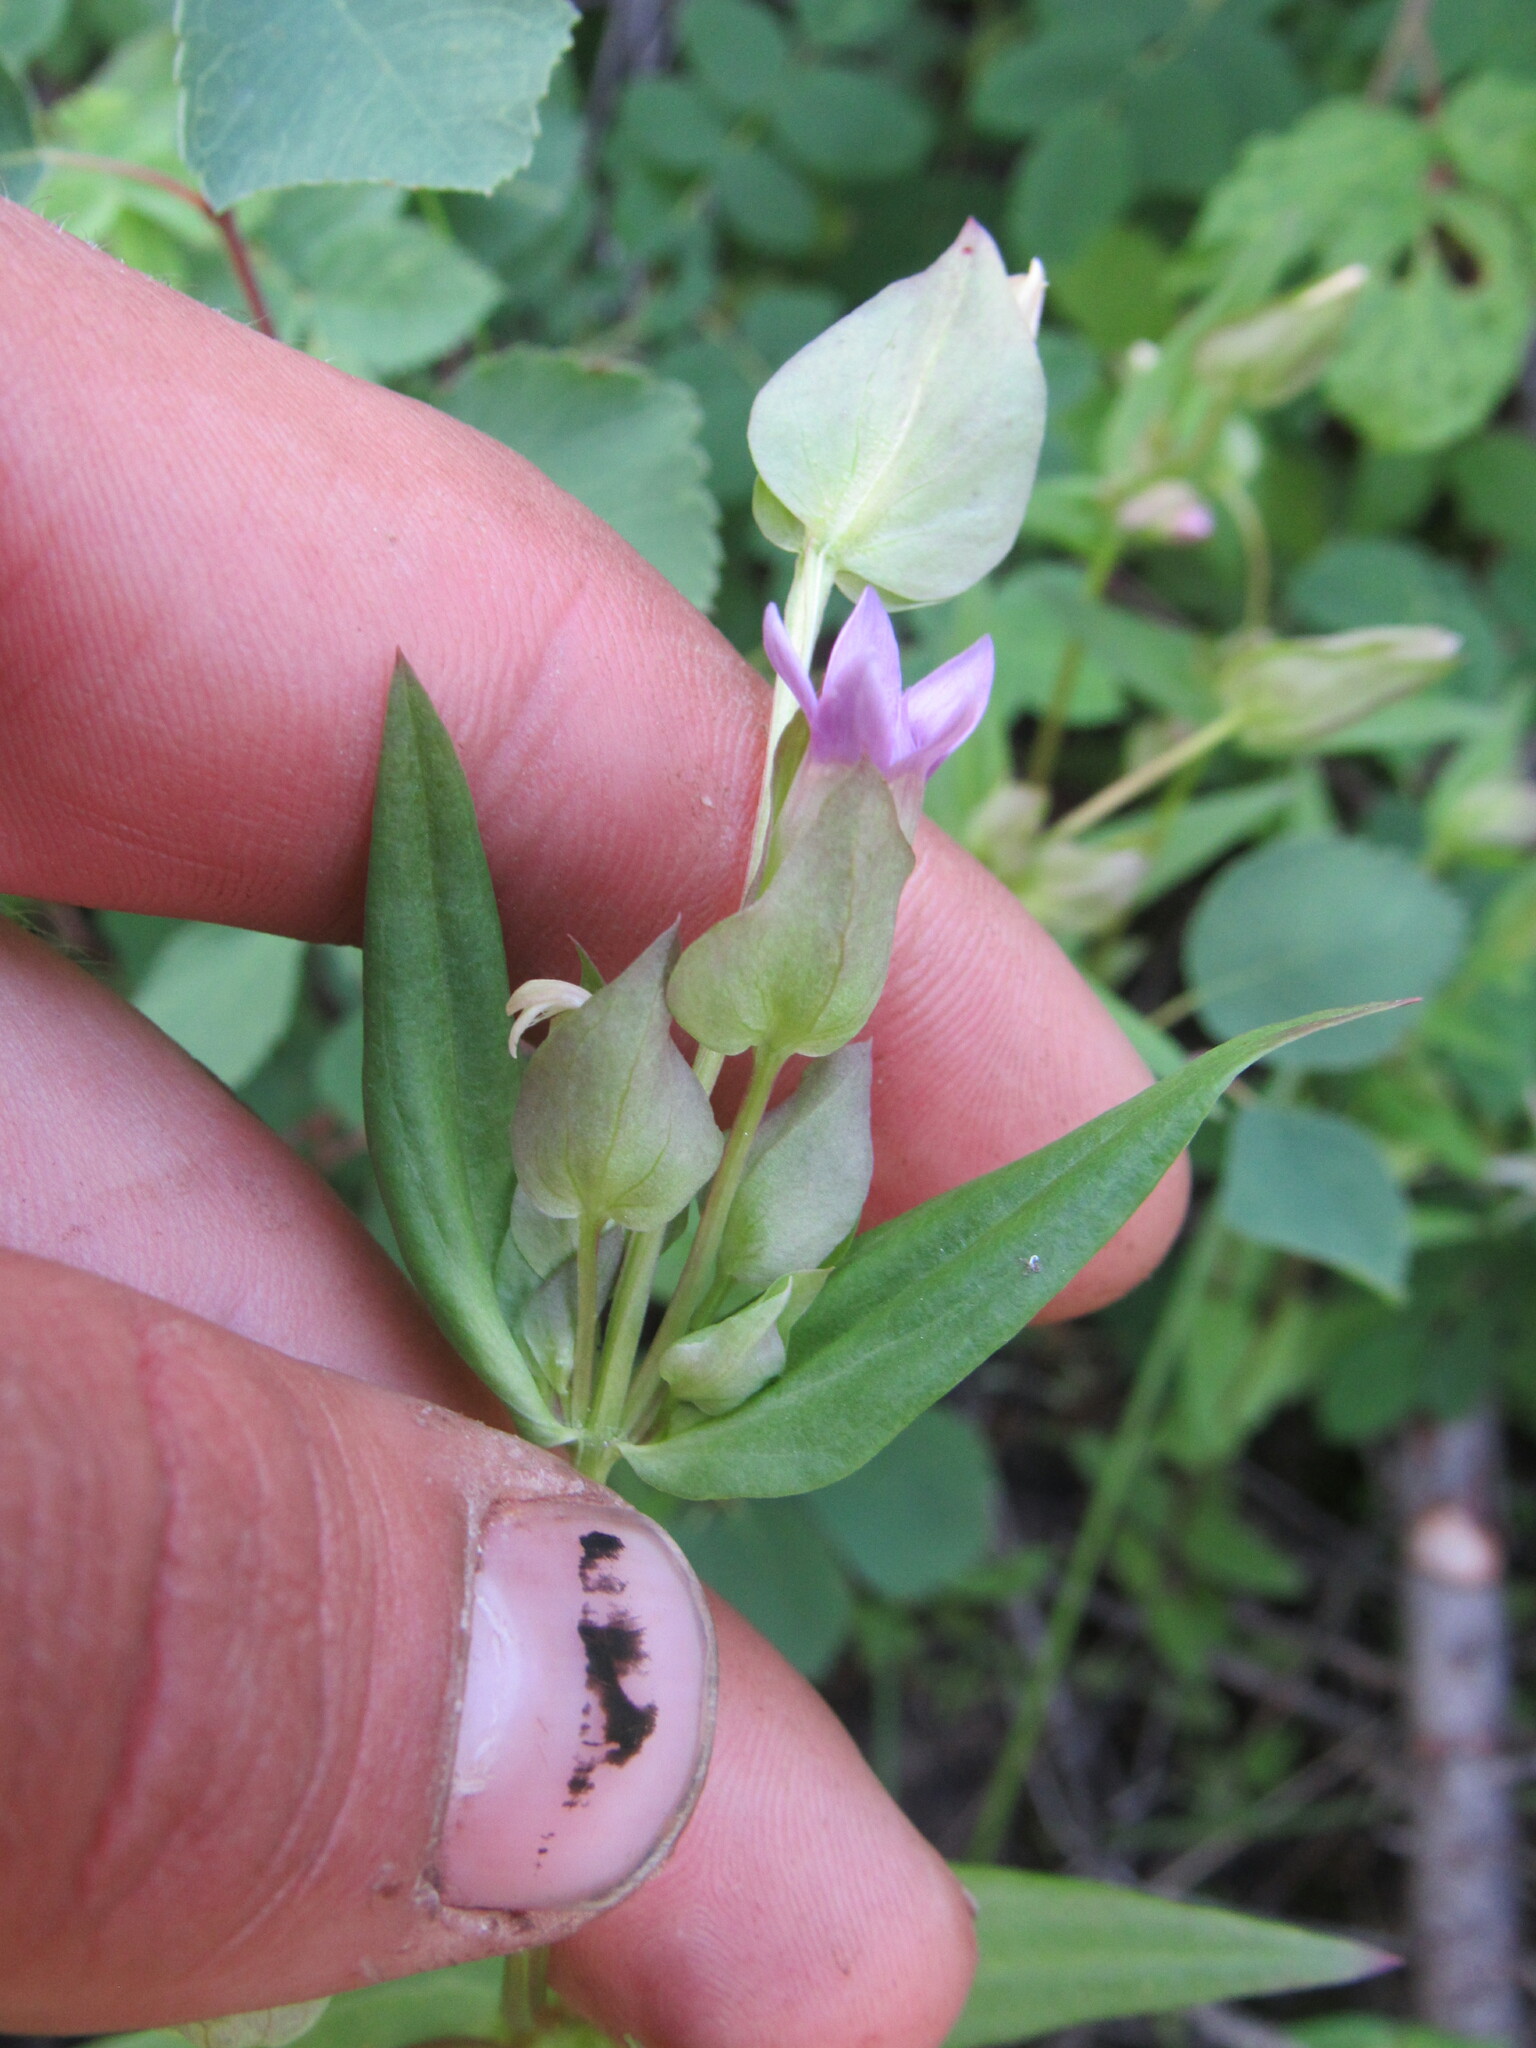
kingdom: Plantae
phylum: Tracheophyta
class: Magnoliopsida
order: Gentianales
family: Gentianaceae
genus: Gentianella
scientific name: Gentianella amarella
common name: Autumn gentian
